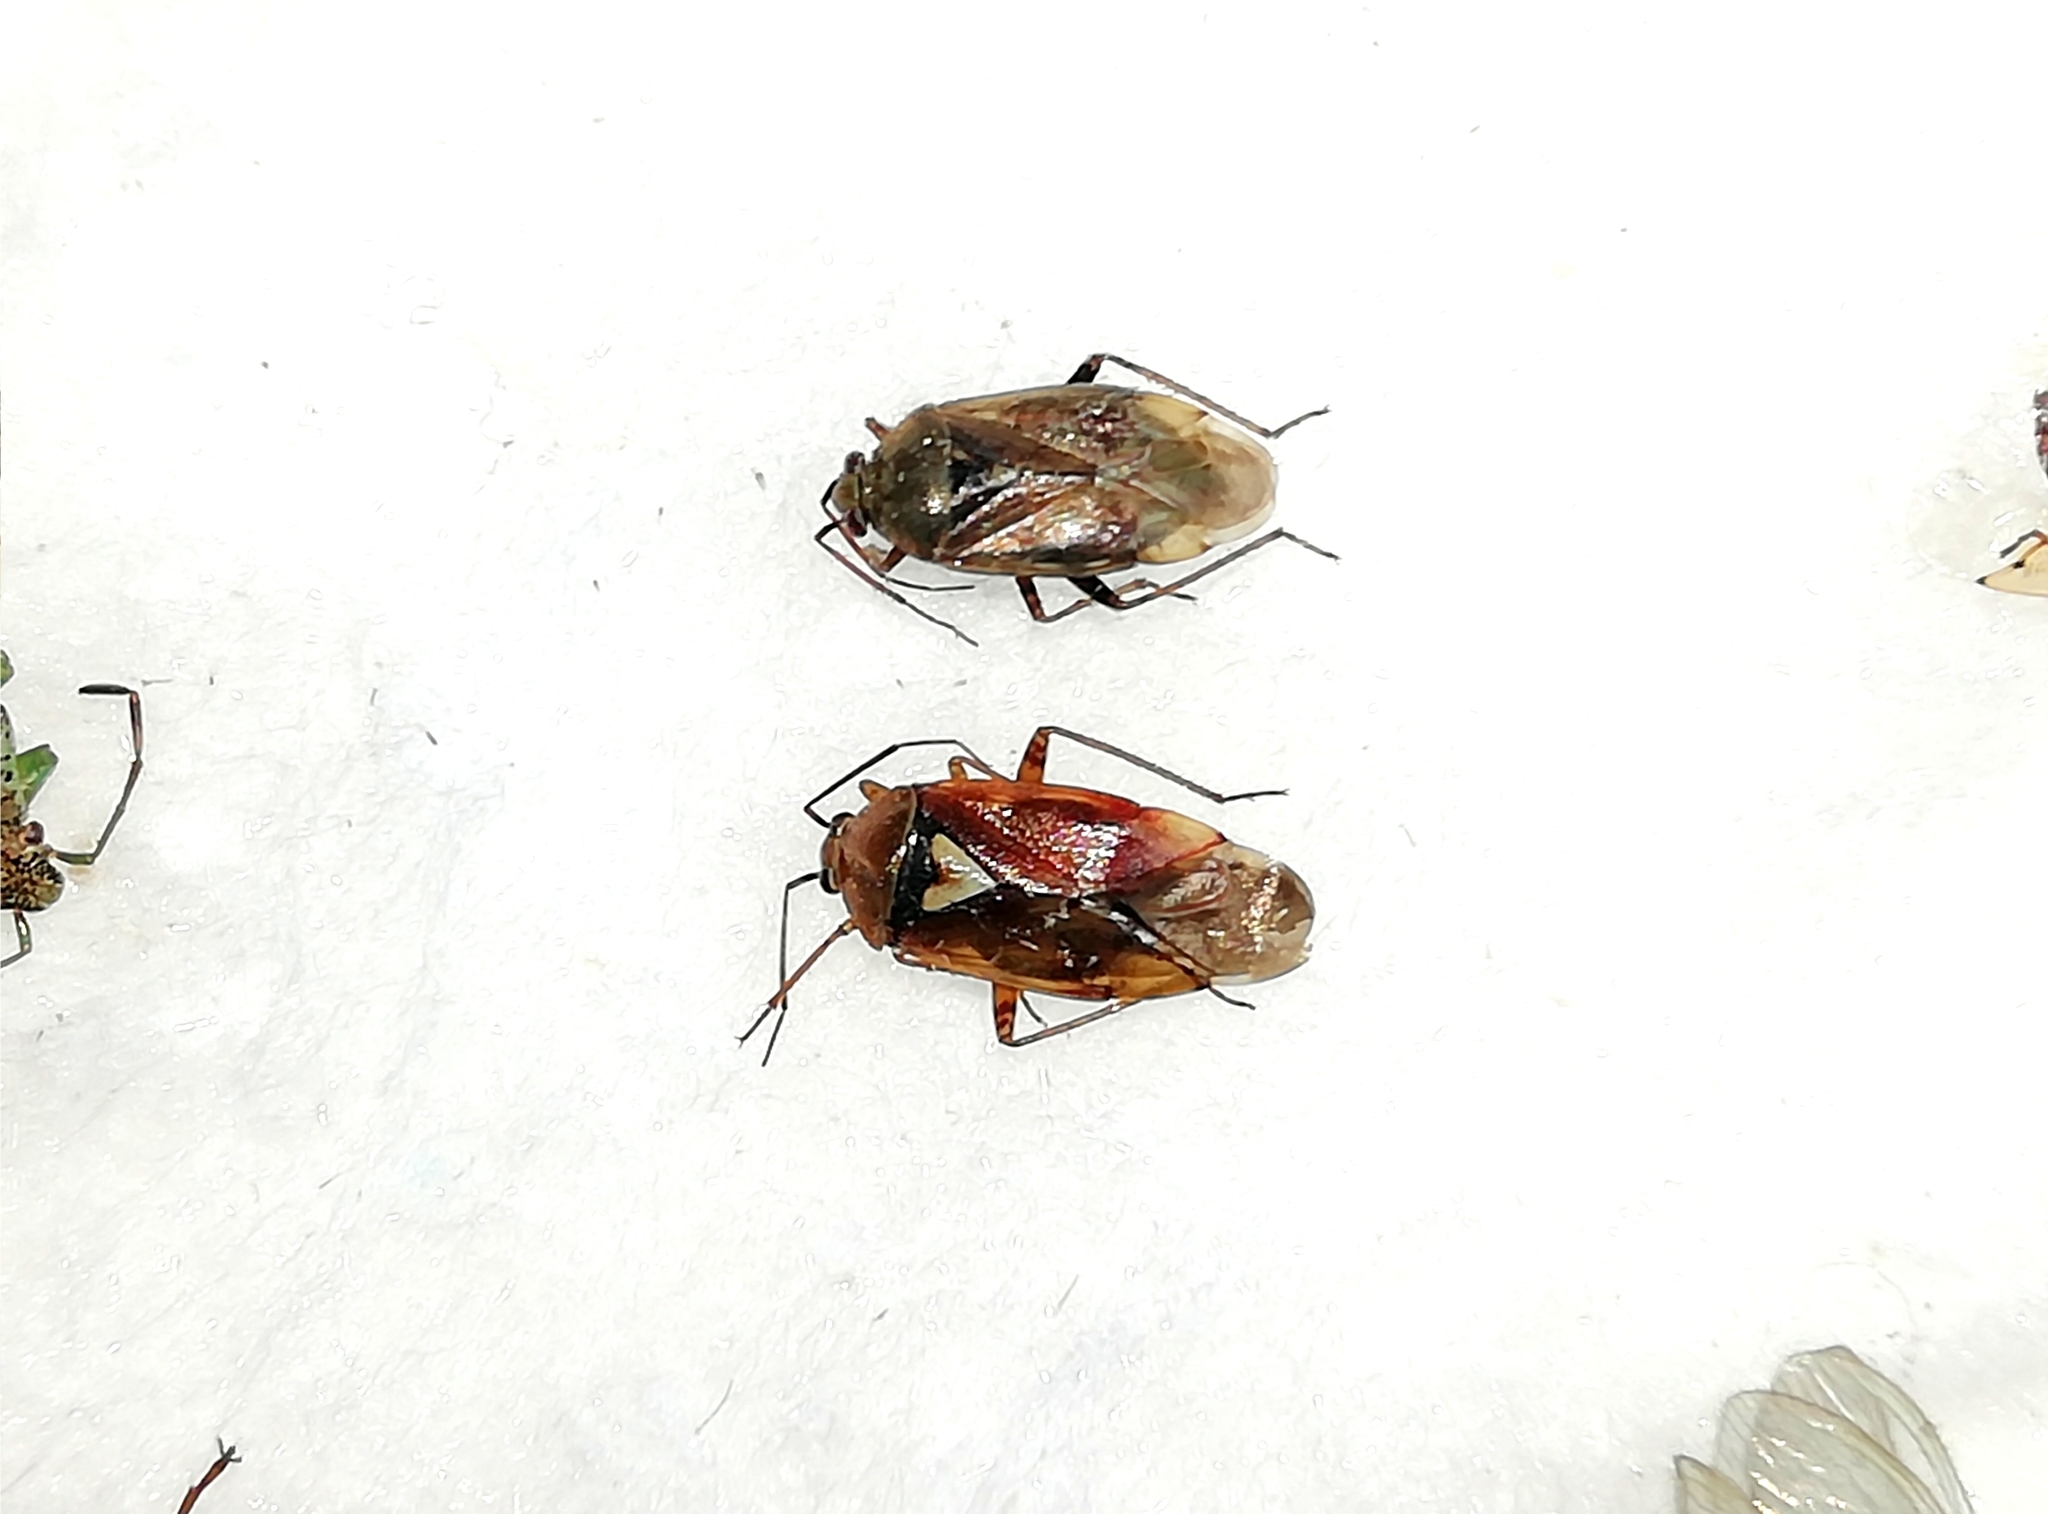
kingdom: Animalia
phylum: Arthropoda
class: Insecta
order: Hemiptera
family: Miridae
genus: Lygus
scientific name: Lygus pratensis
